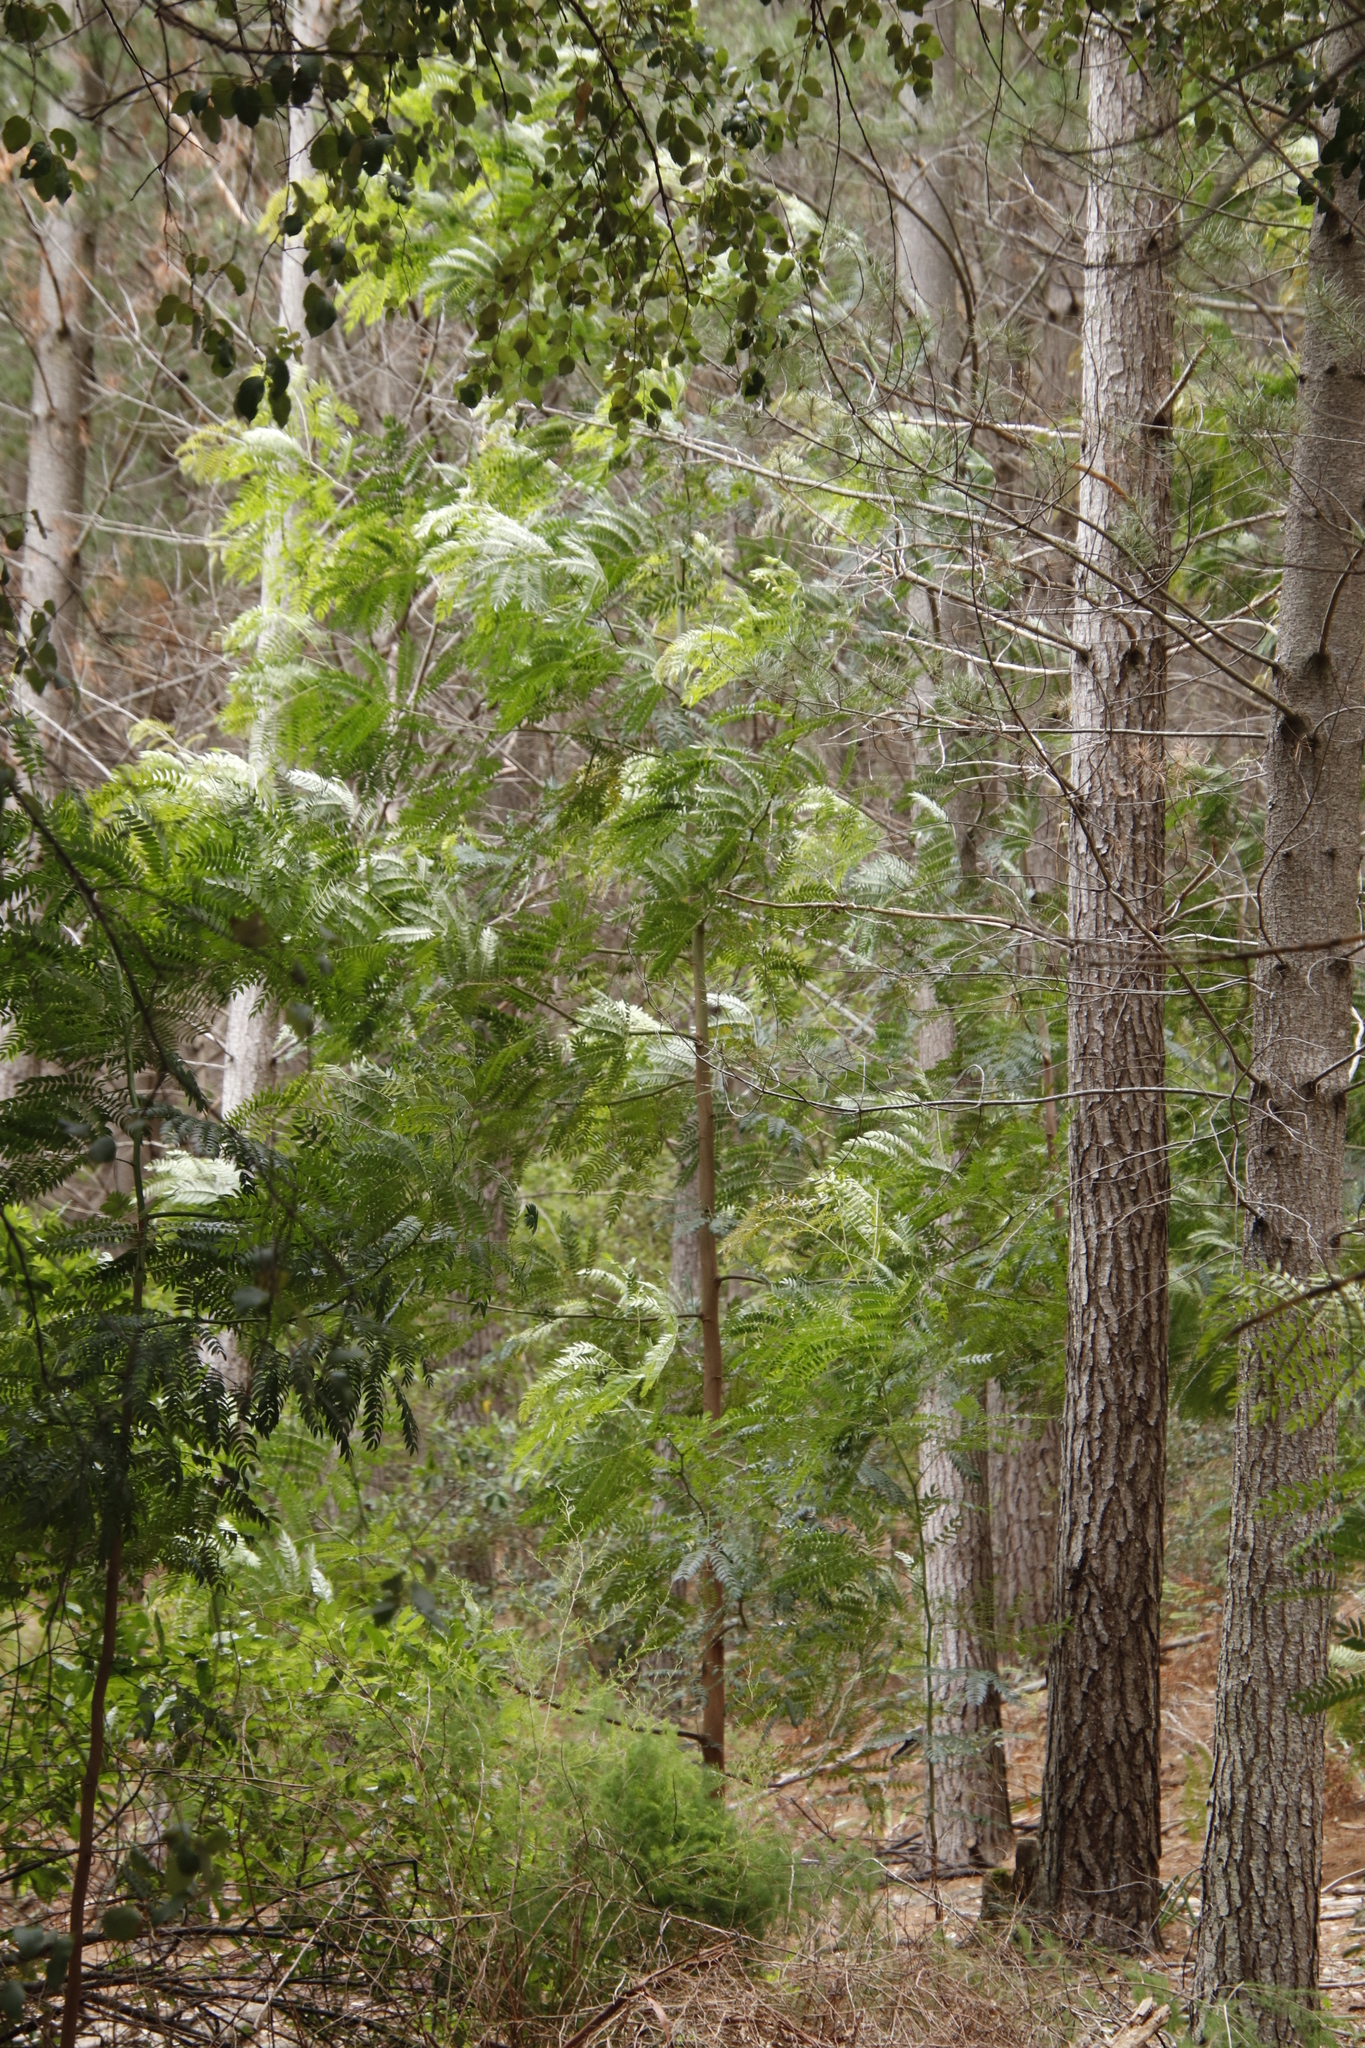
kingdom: Plantae
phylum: Tracheophyta
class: Magnoliopsida
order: Fabales
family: Fabaceae
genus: Acacia
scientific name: Acacia elata
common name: Cedar wattle
